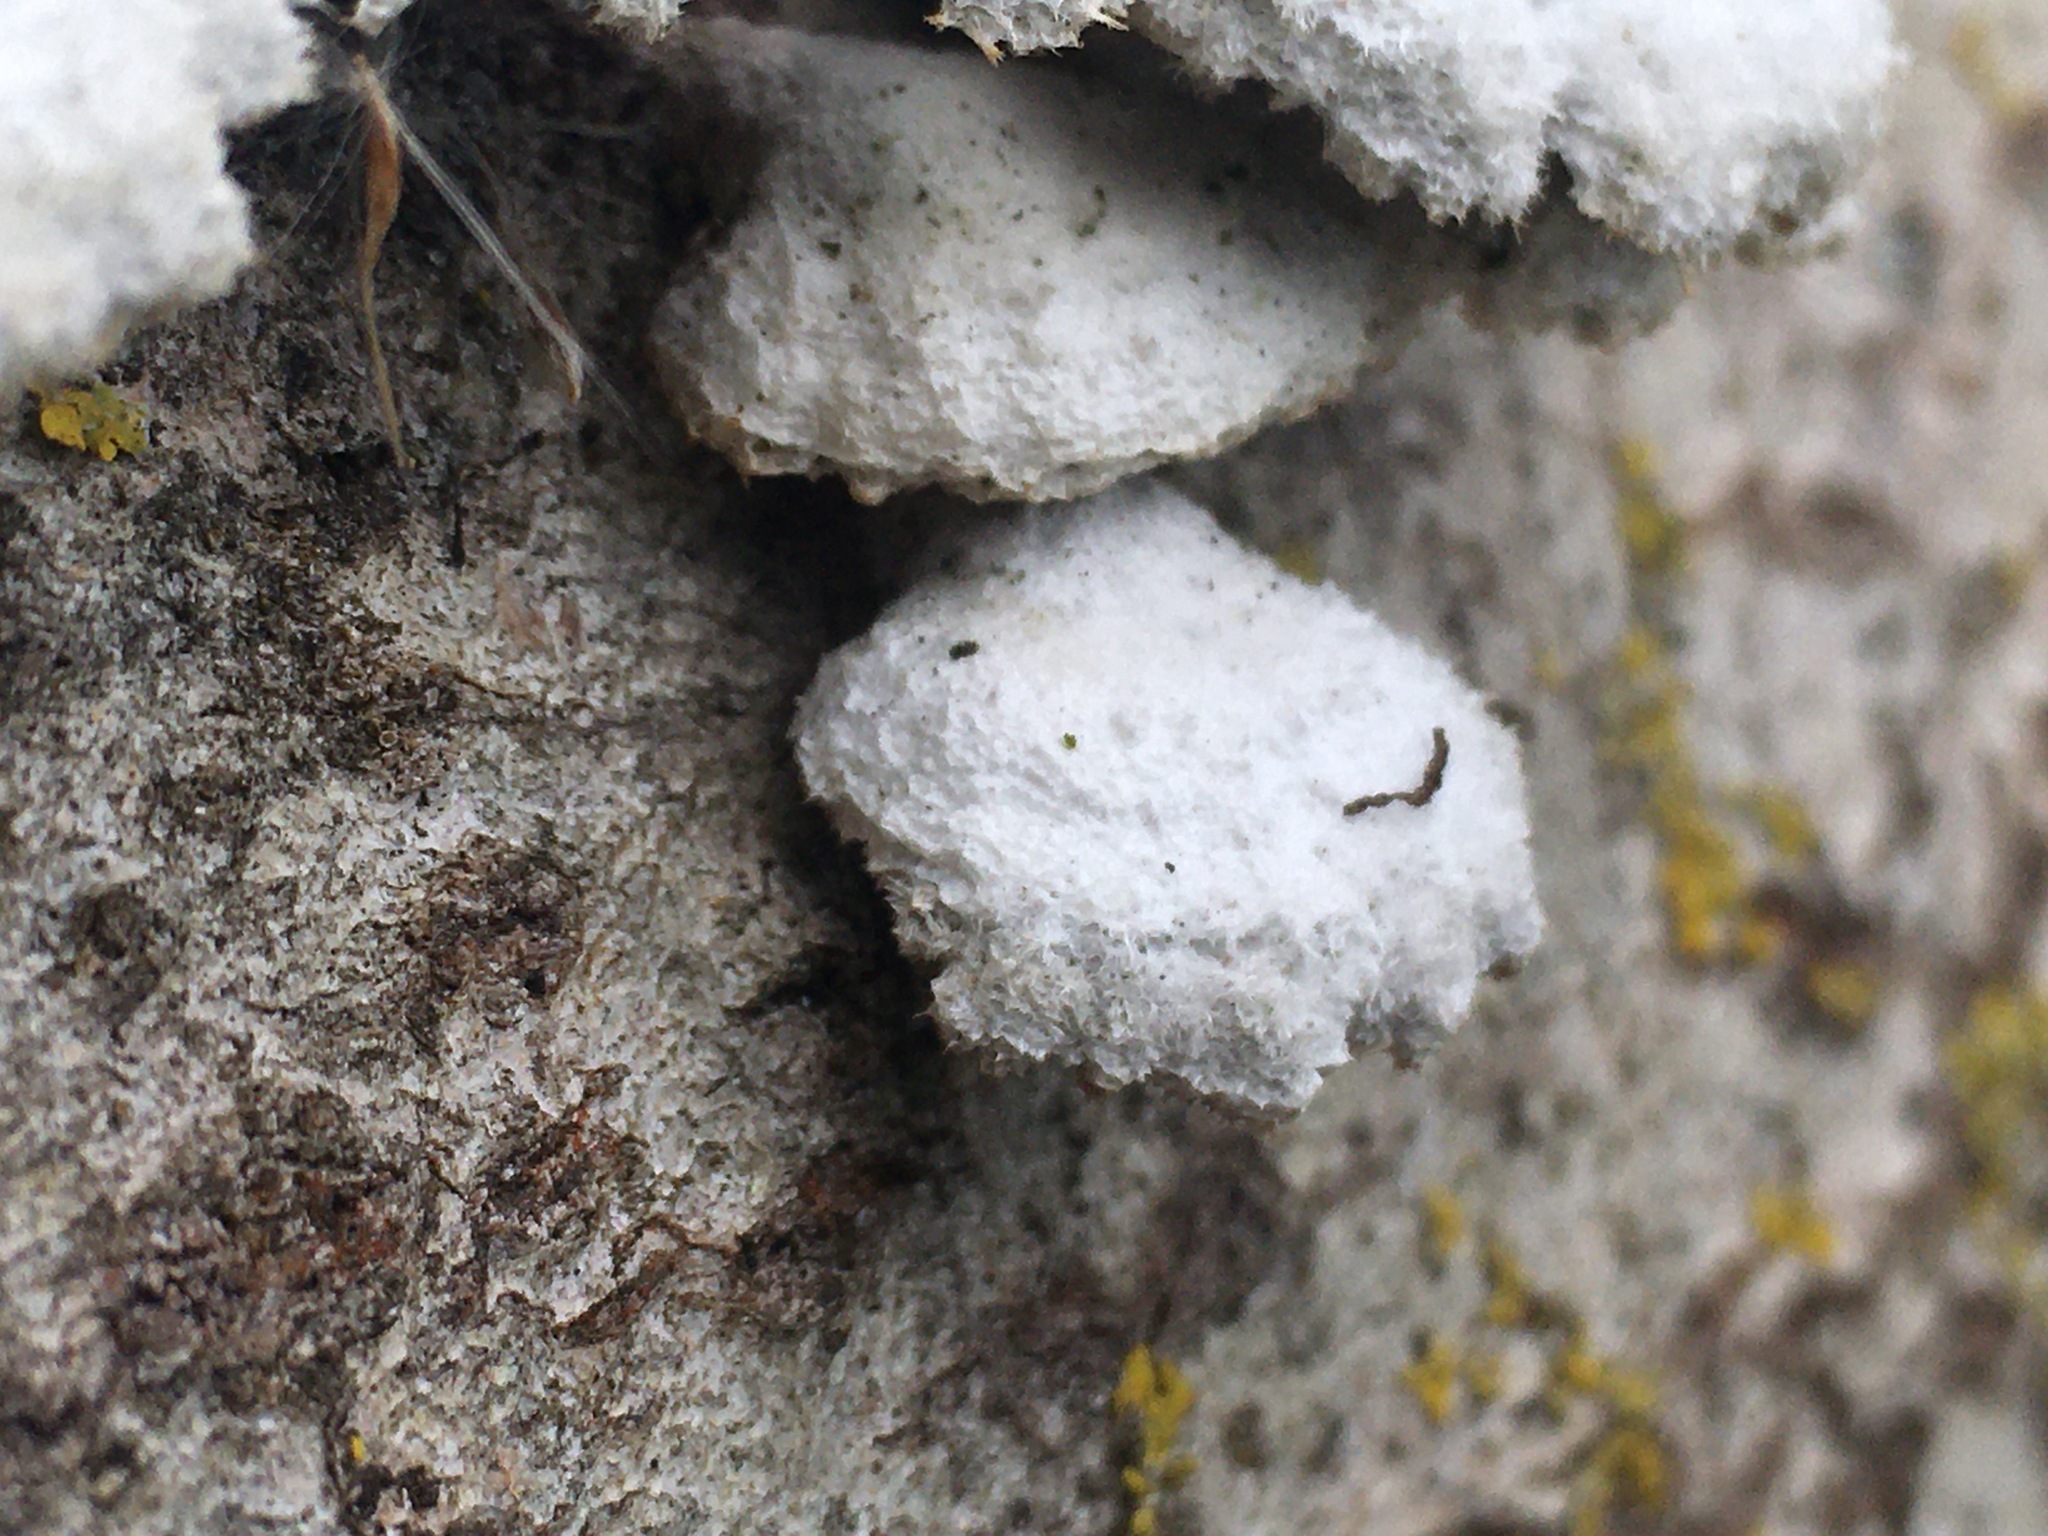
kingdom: Fungi
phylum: Basidiomycota
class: Agaricomycetes
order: Agaricales
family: Schizophyllaceae
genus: Schizophyllum
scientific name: Schizophyllum commune
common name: Common porecrust
